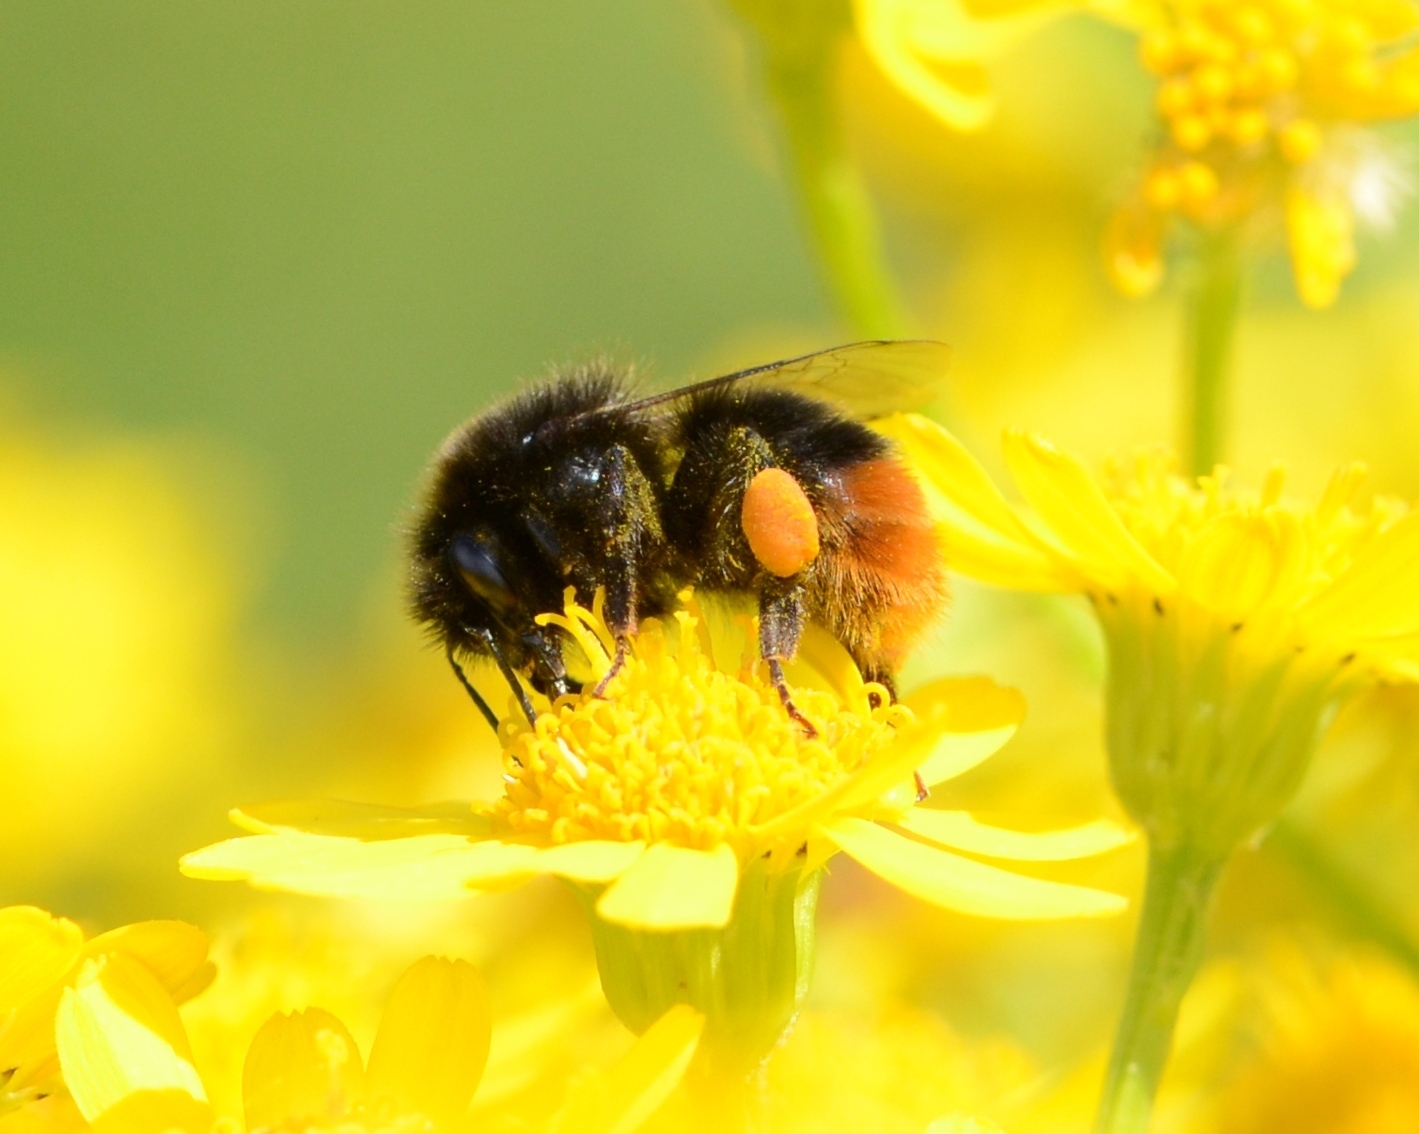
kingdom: Animalia
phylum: Arthropoda
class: Insecta
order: Hymenoptera
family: Apidae
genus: Bombus
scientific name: Bombus lapidarius
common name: Large red-tailed humble-bee
